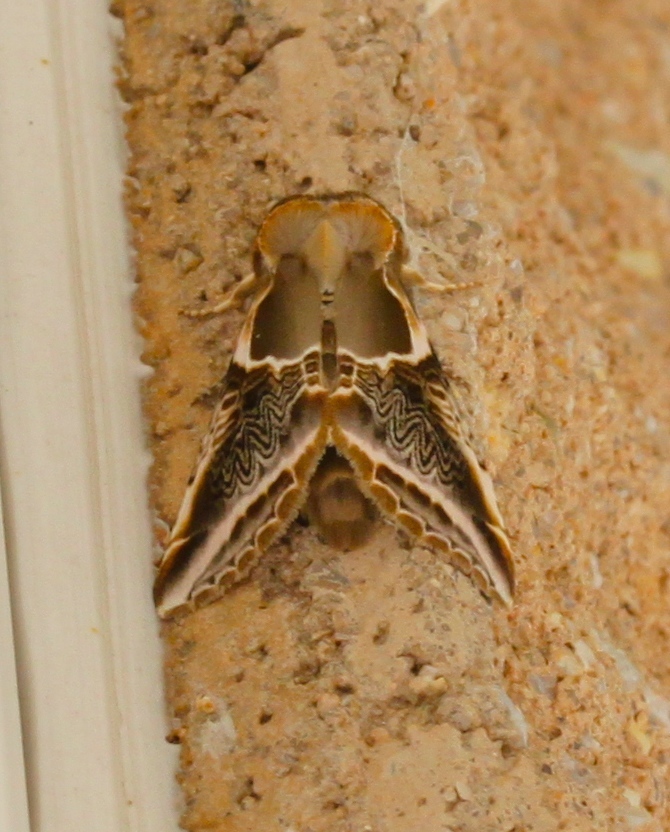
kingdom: Animalia
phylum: Arthropoda
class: Insecta
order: Lepidoptera
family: Drepanidae
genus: Habrosyne
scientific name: Habrosyne scripta
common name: Lettered habrosyne moth
